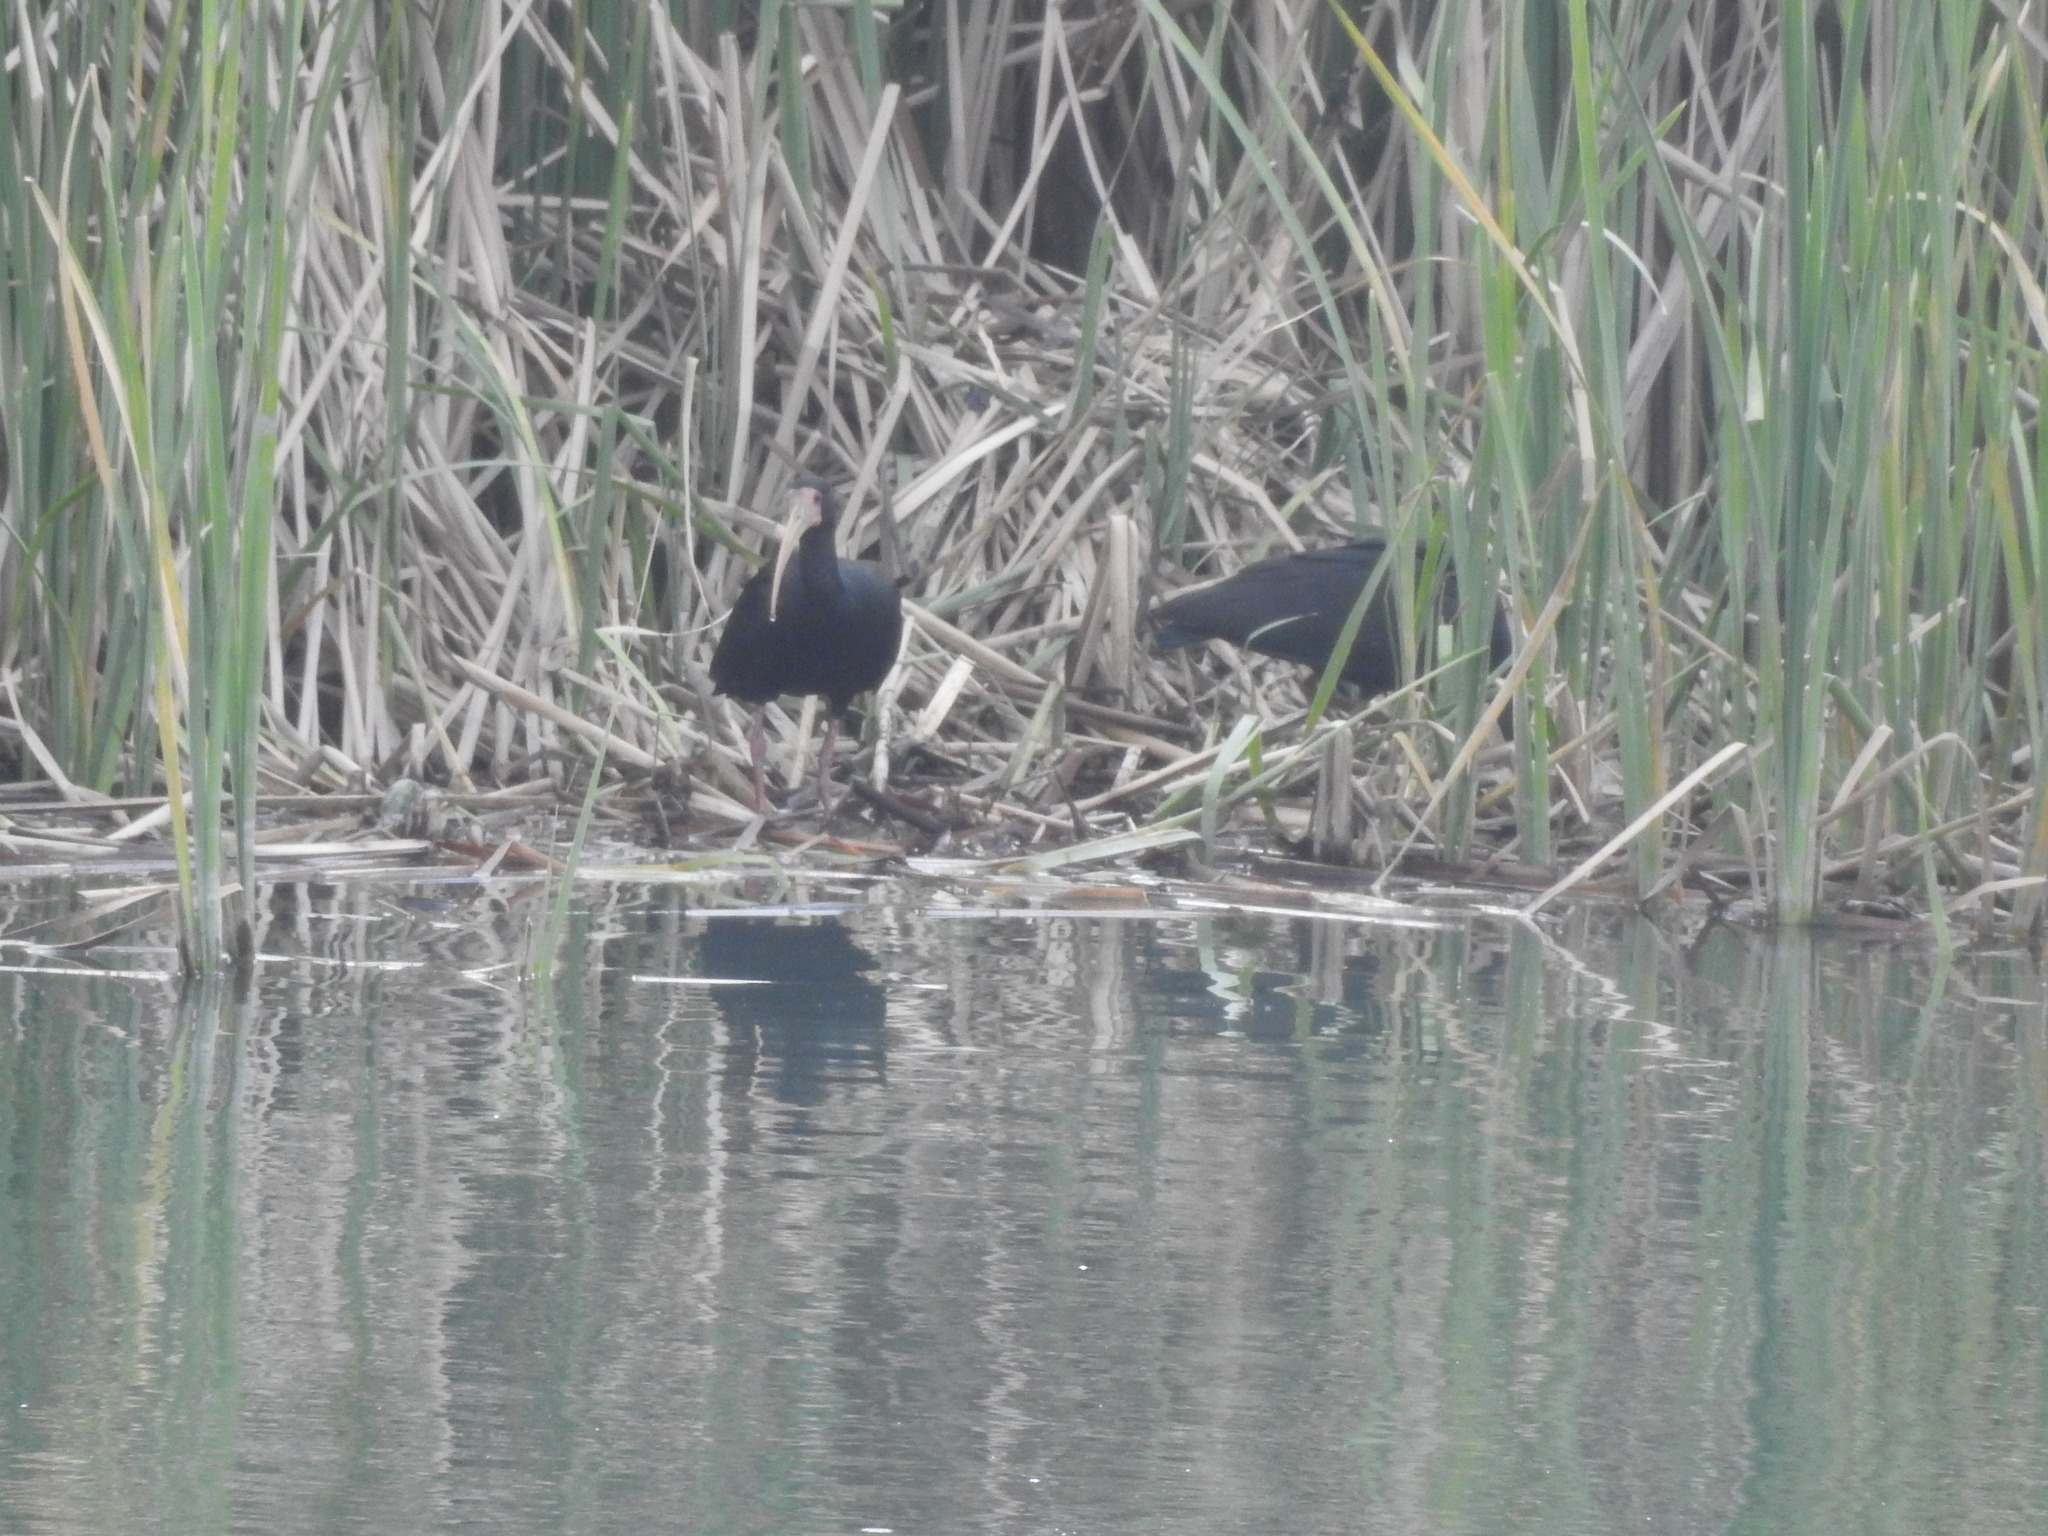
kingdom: Animalia
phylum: Chordata
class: Aves
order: Pelecaniformes
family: Threskiornithidae
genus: Phimosus
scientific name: Phimosus infuscatus
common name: Bare-faced ibis
